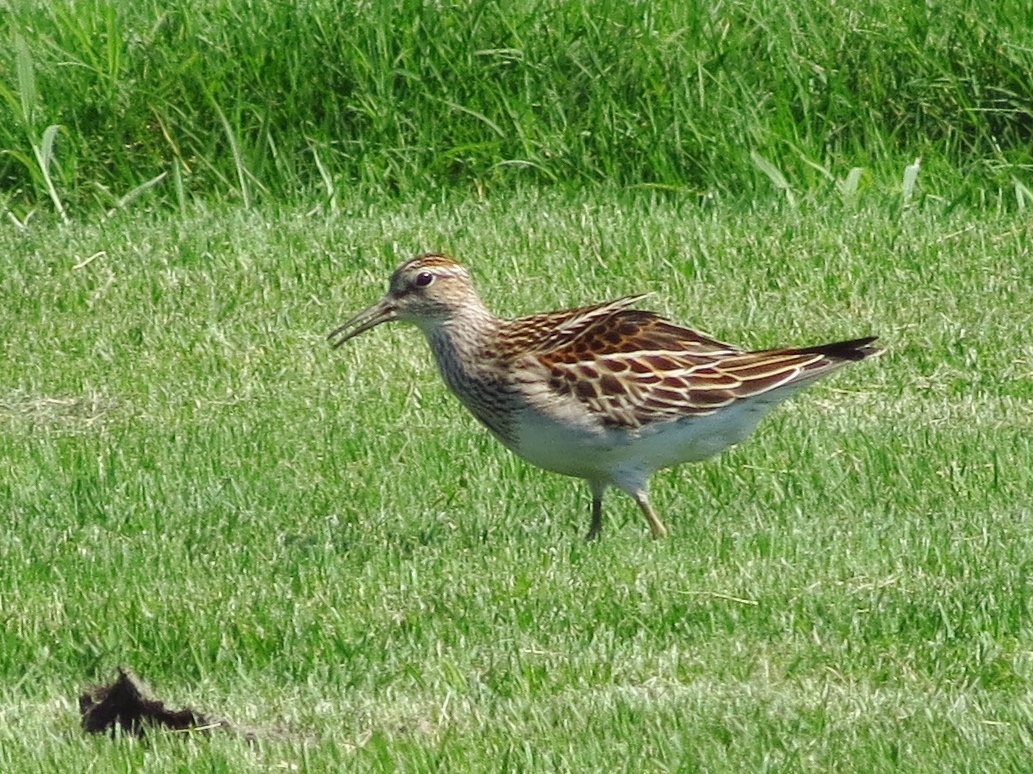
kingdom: Animalia
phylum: Chordata
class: Aves
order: Charadriiformes
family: Scolopacidae
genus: Calidris
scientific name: Calidris melanotos
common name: Pectoral sandpiper
